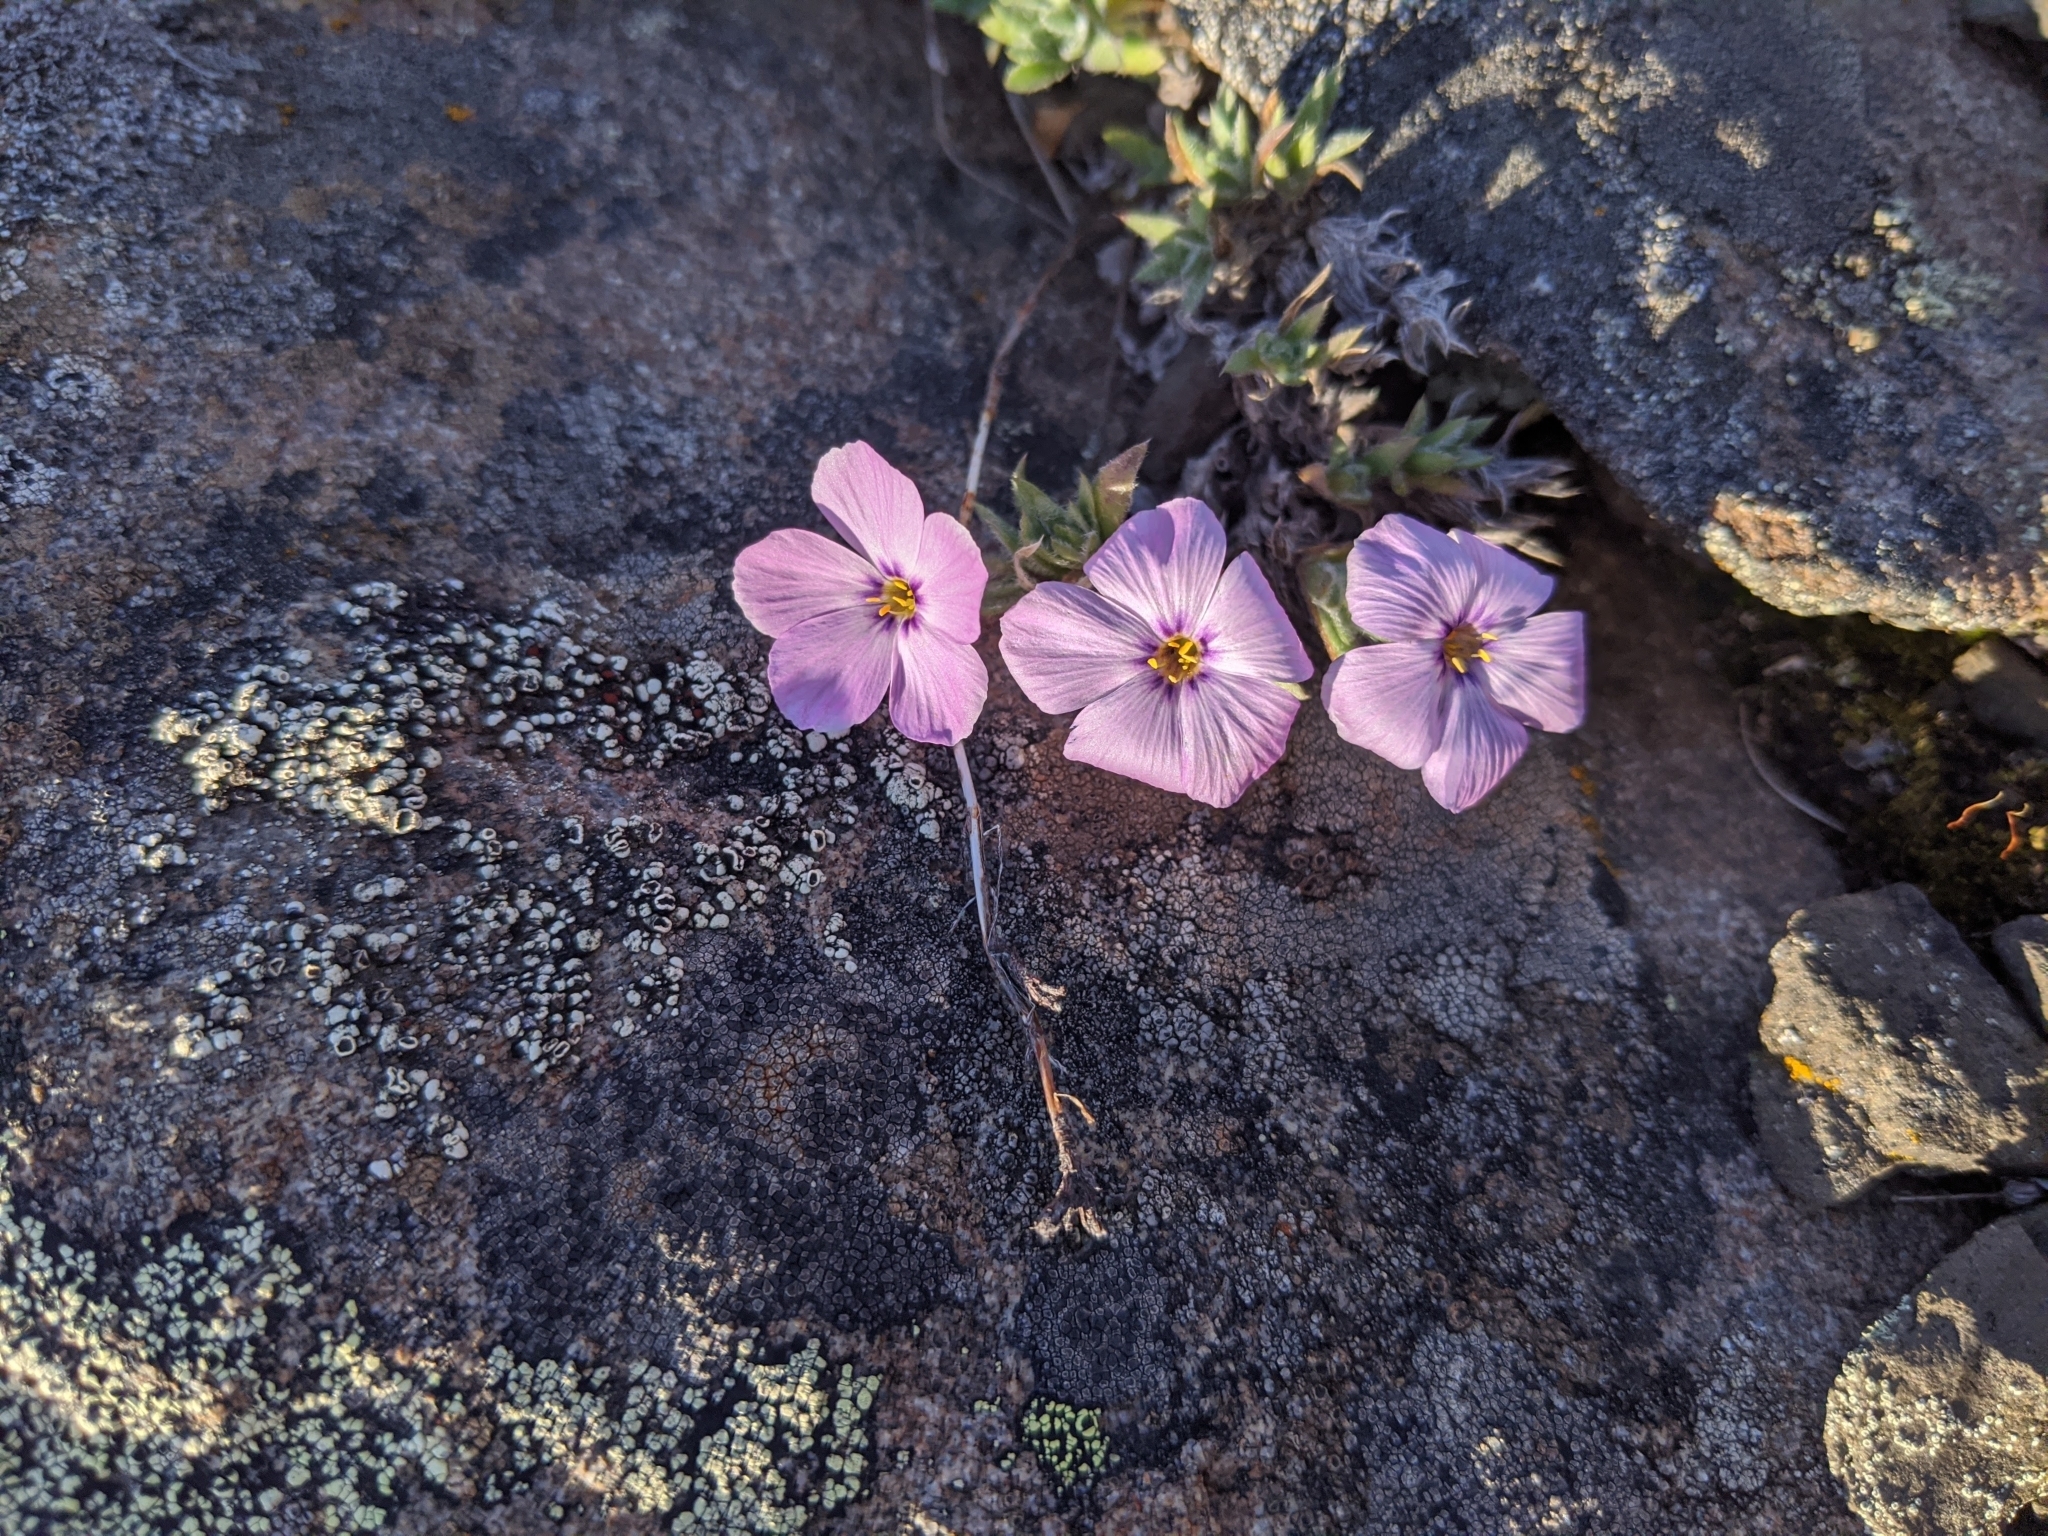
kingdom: Plantae
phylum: Tracheophyta
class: Magnoliopsida
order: Ericales
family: Polemoniaceae
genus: Phlox
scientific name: Phlox richardsonii
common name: Richardson's phlox
